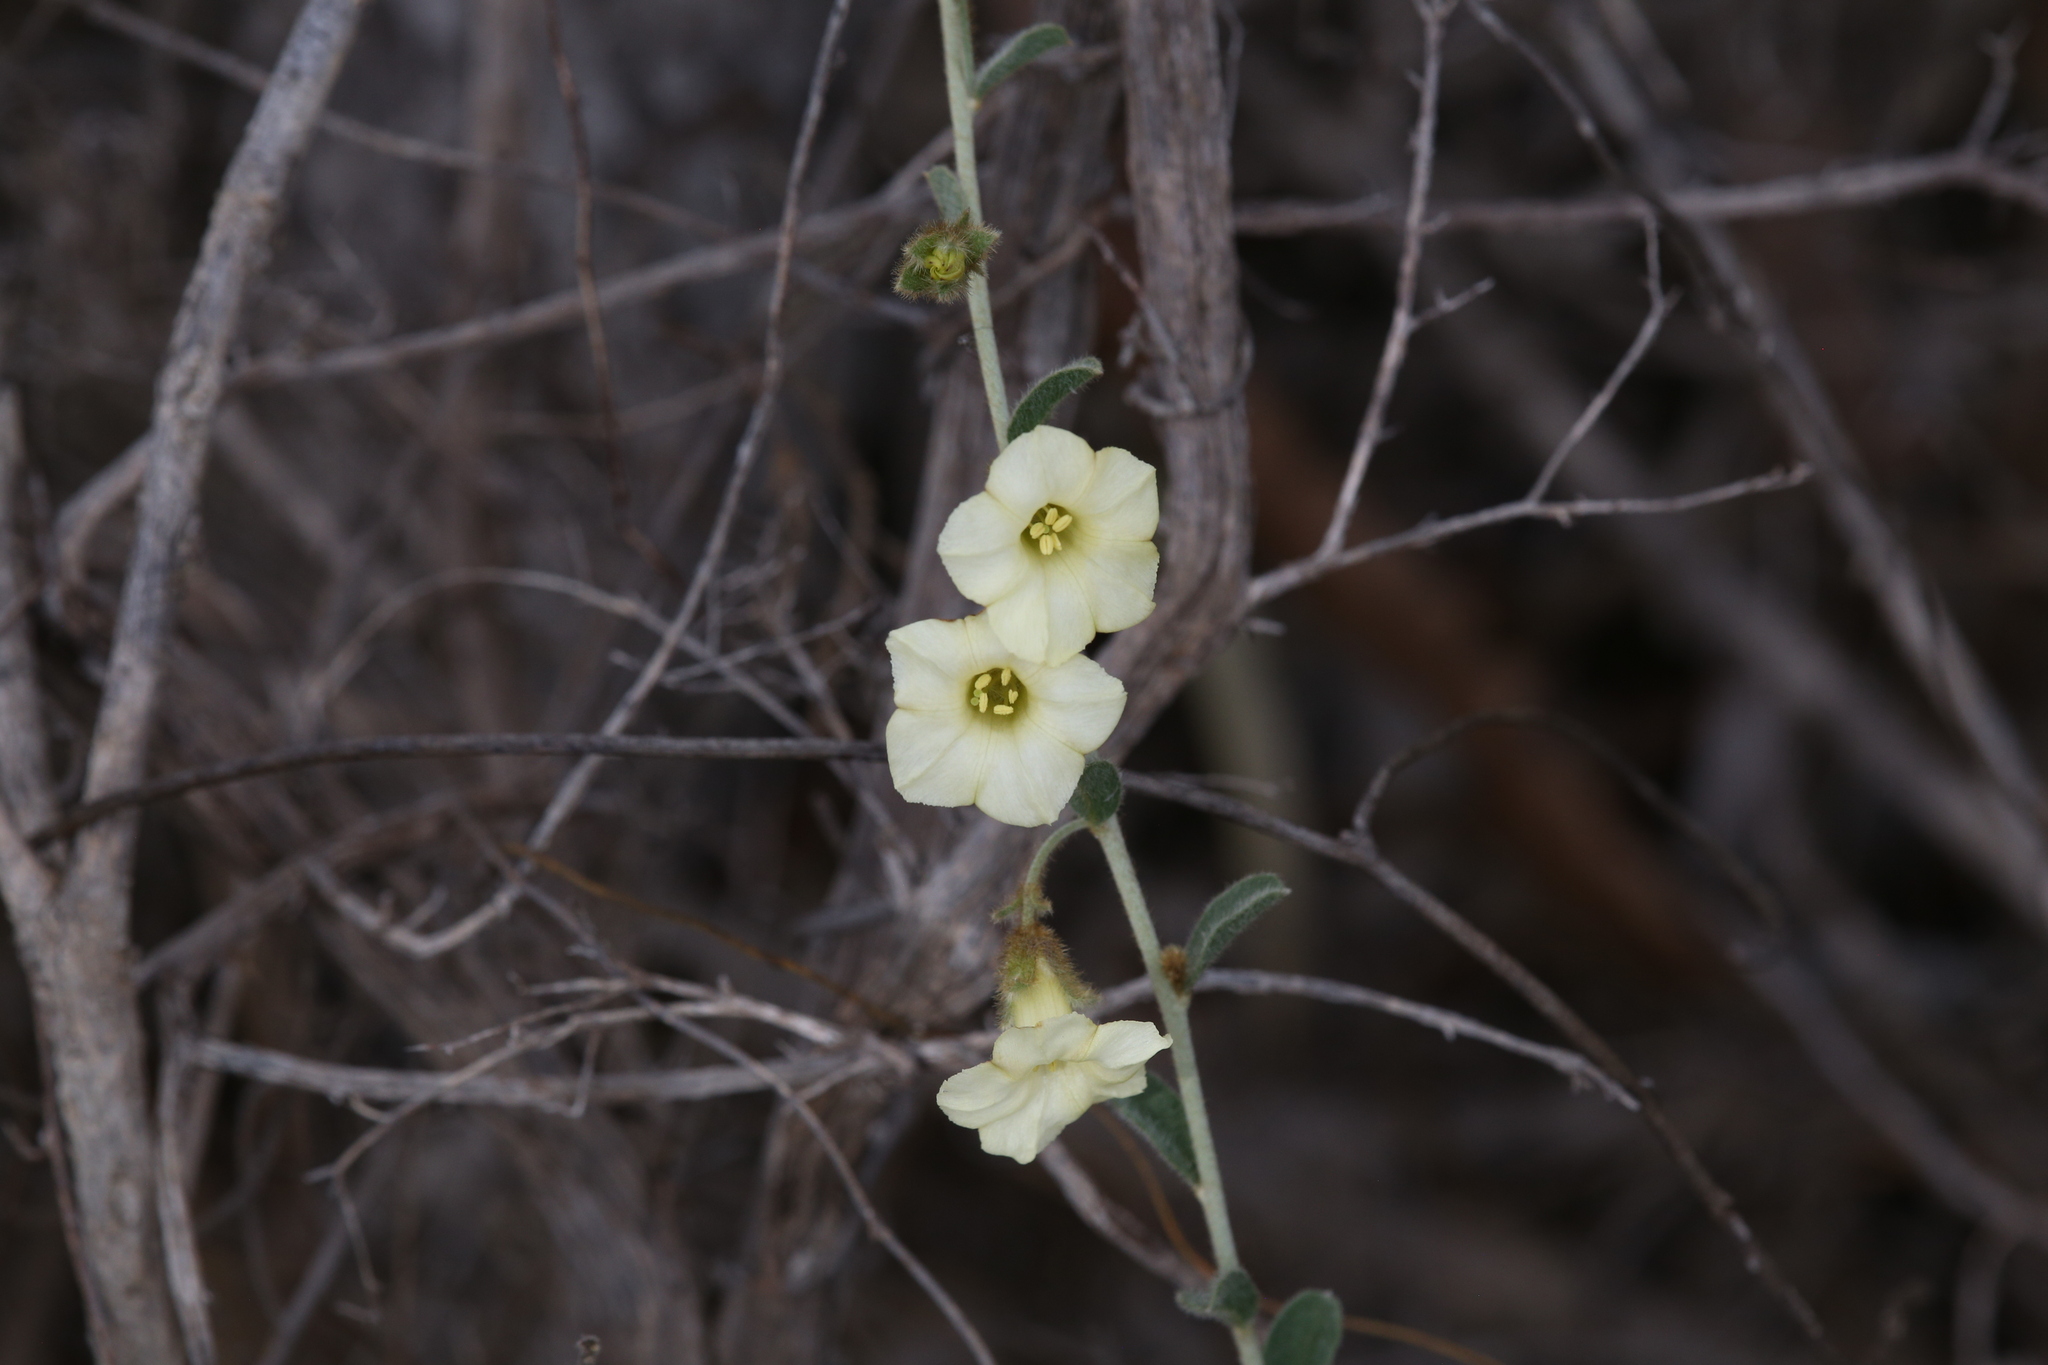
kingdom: Plantae
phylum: Tracheophyta
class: Magnoliopsida
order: Solanales
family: Convolvulaceae
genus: Bonamia
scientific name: Bonamia rosea
